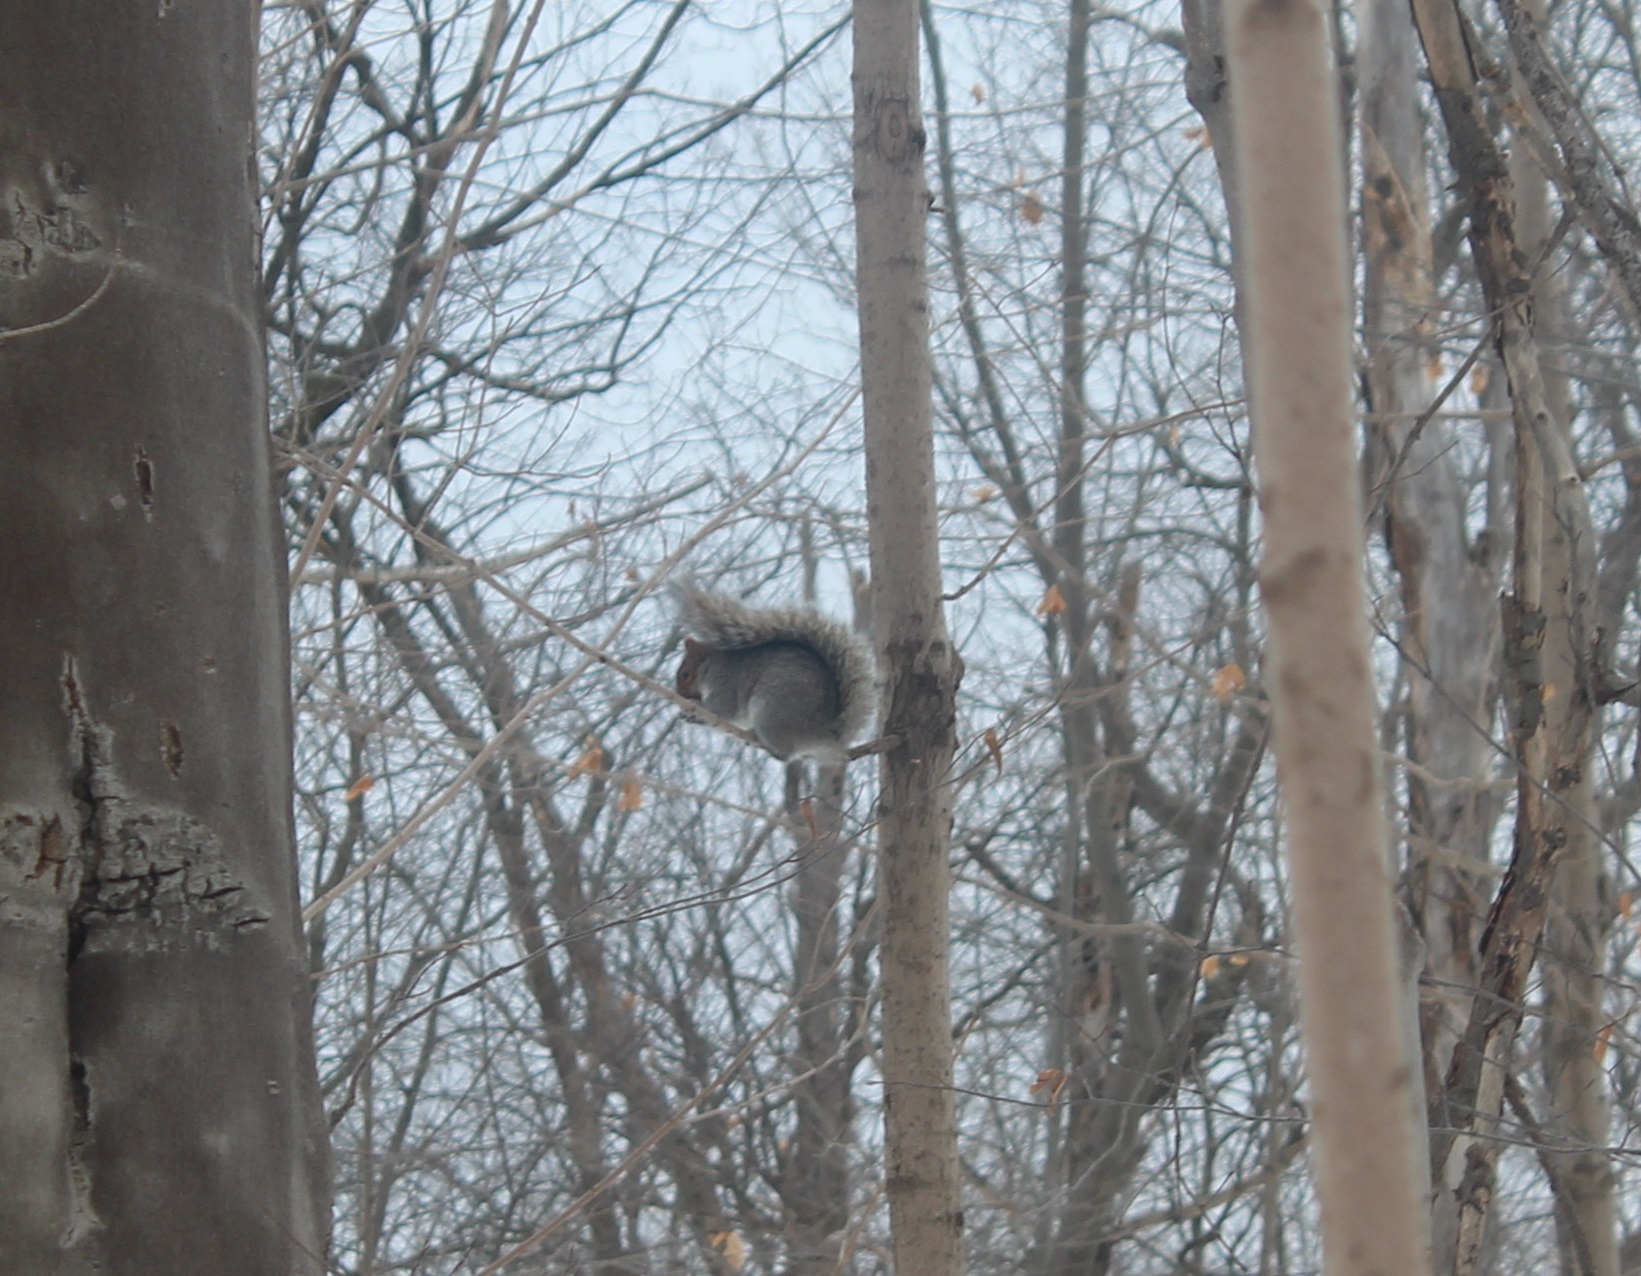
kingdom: Animalia
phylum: Chordata
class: Mammalia
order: Rodentia
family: Sciuridae
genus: Sciurus
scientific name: Sciurus carolinensis
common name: Eastern gray squirrel
